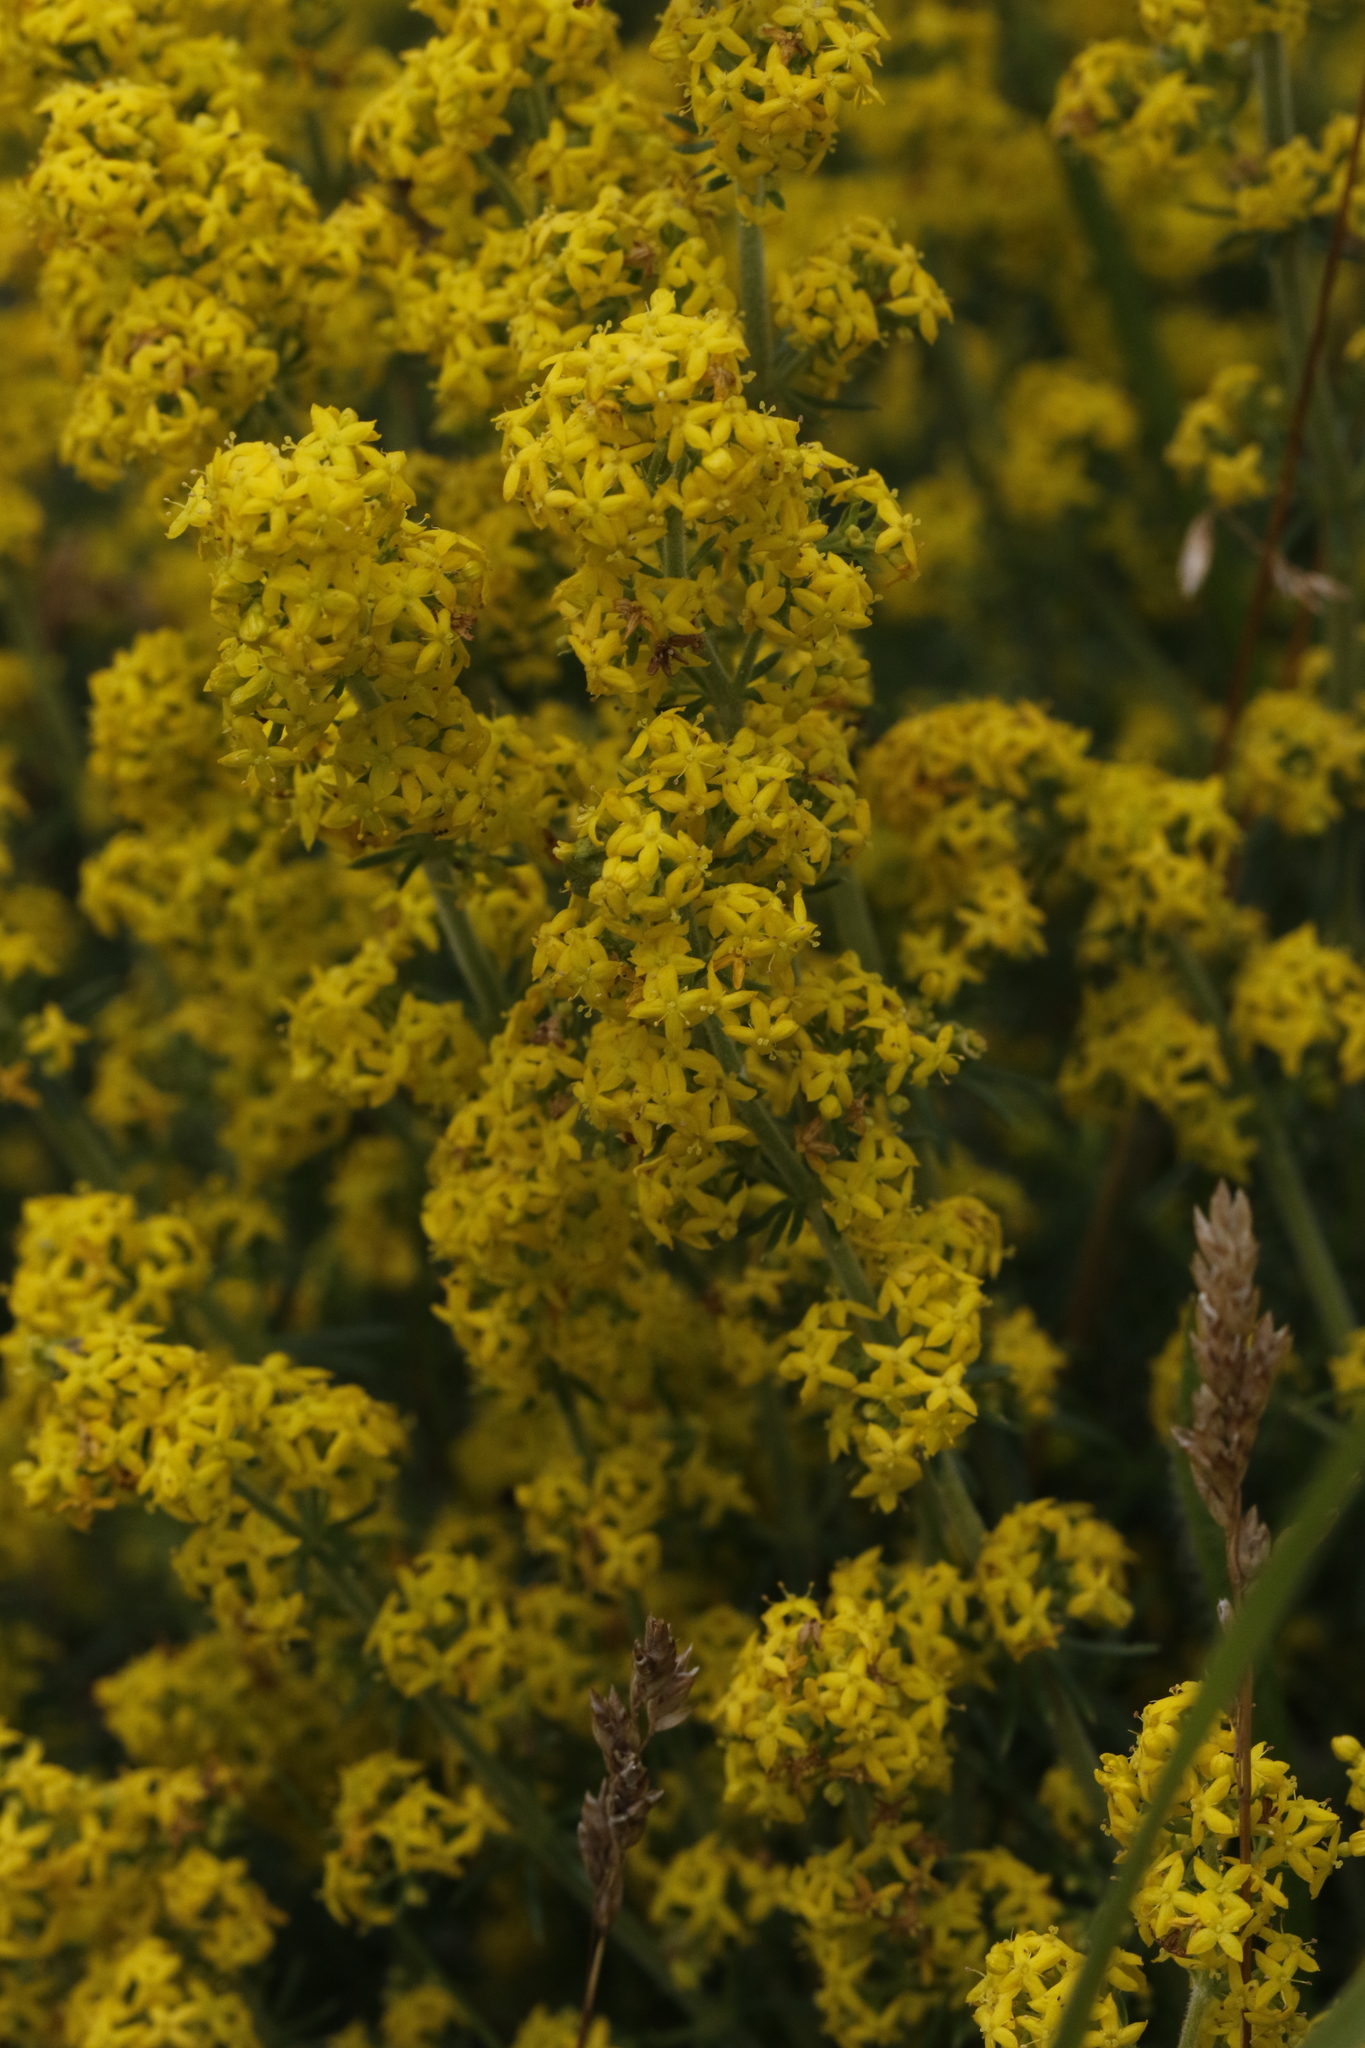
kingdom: Plantae
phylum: Tracheophyta
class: Magnoliopsida
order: Gentianales
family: Rubiaceae
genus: Galium
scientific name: Galium verum
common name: Lady's bedstraw
